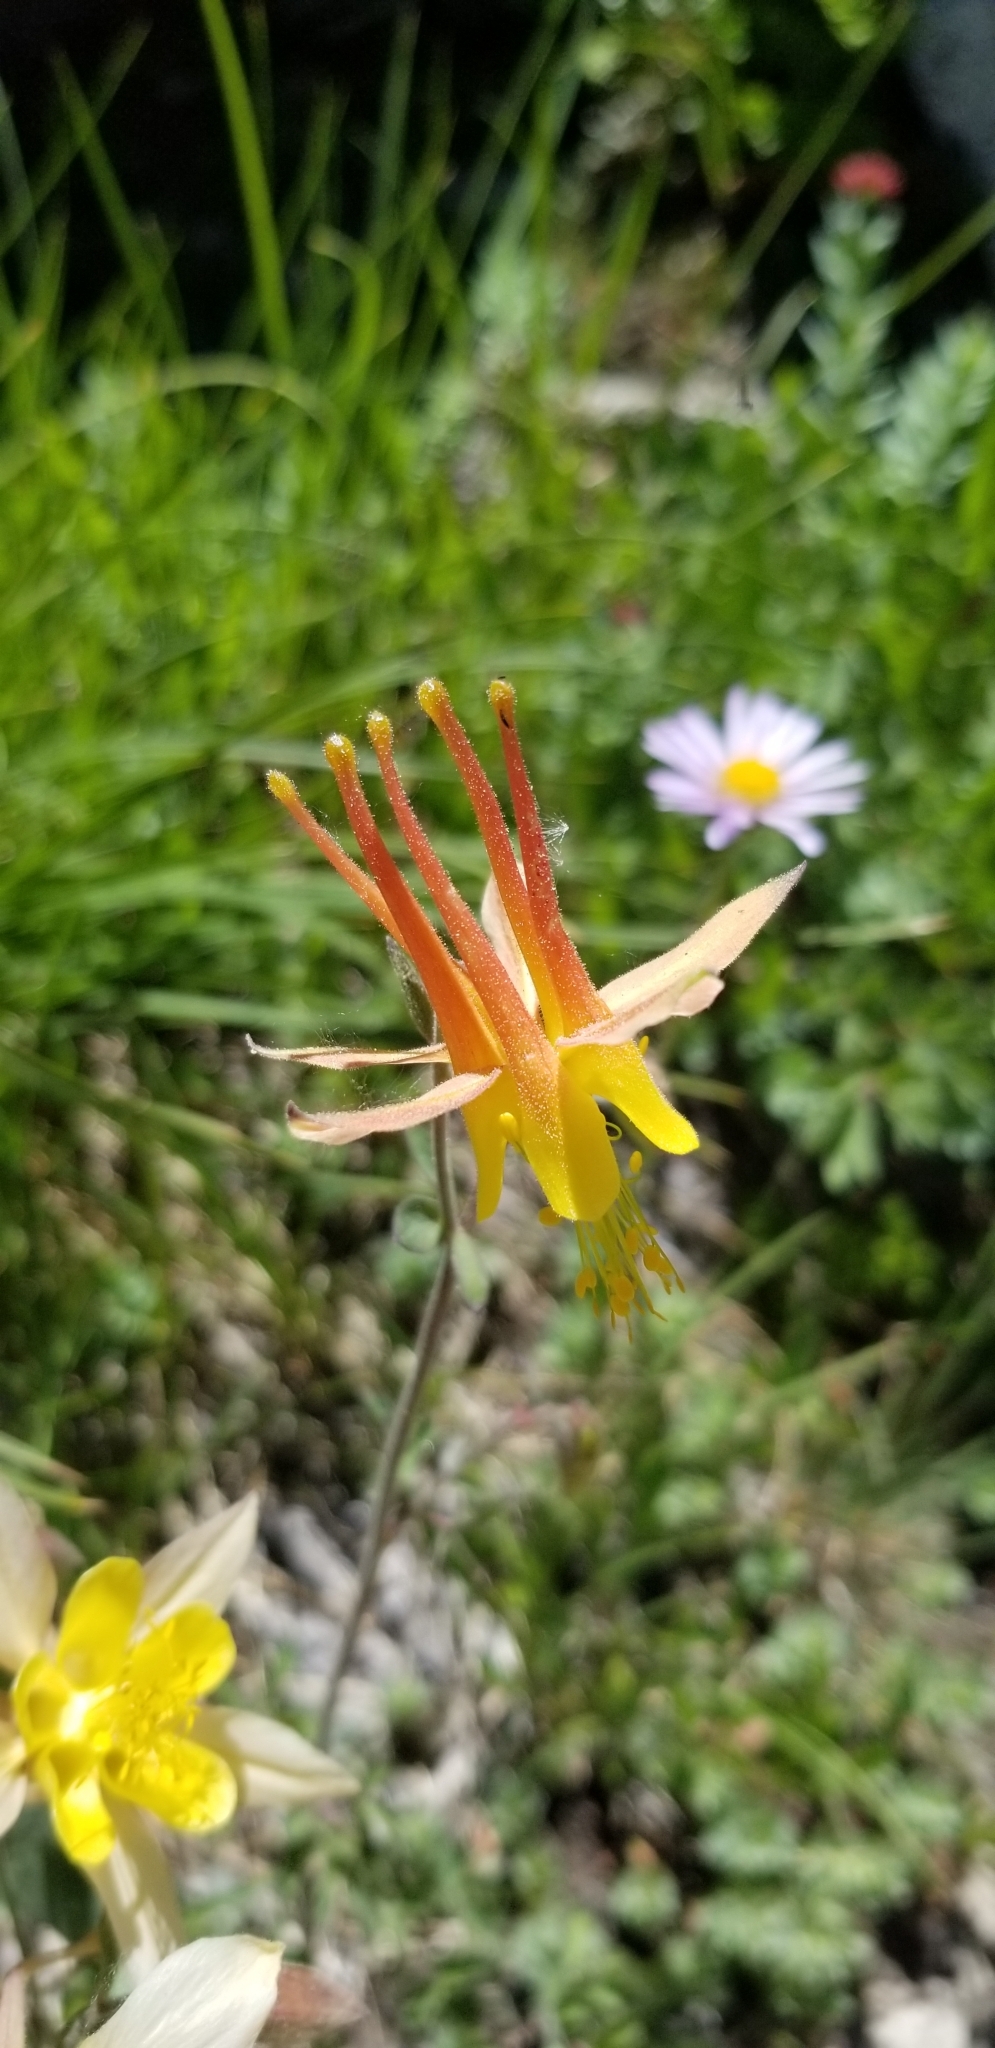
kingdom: Plantae
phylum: Tracheophyta
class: Magnoliopsida
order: Ranunculales
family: Ranunculaceae
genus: Aquilegia
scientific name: Aquilegia formosa
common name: Sitka columbine
